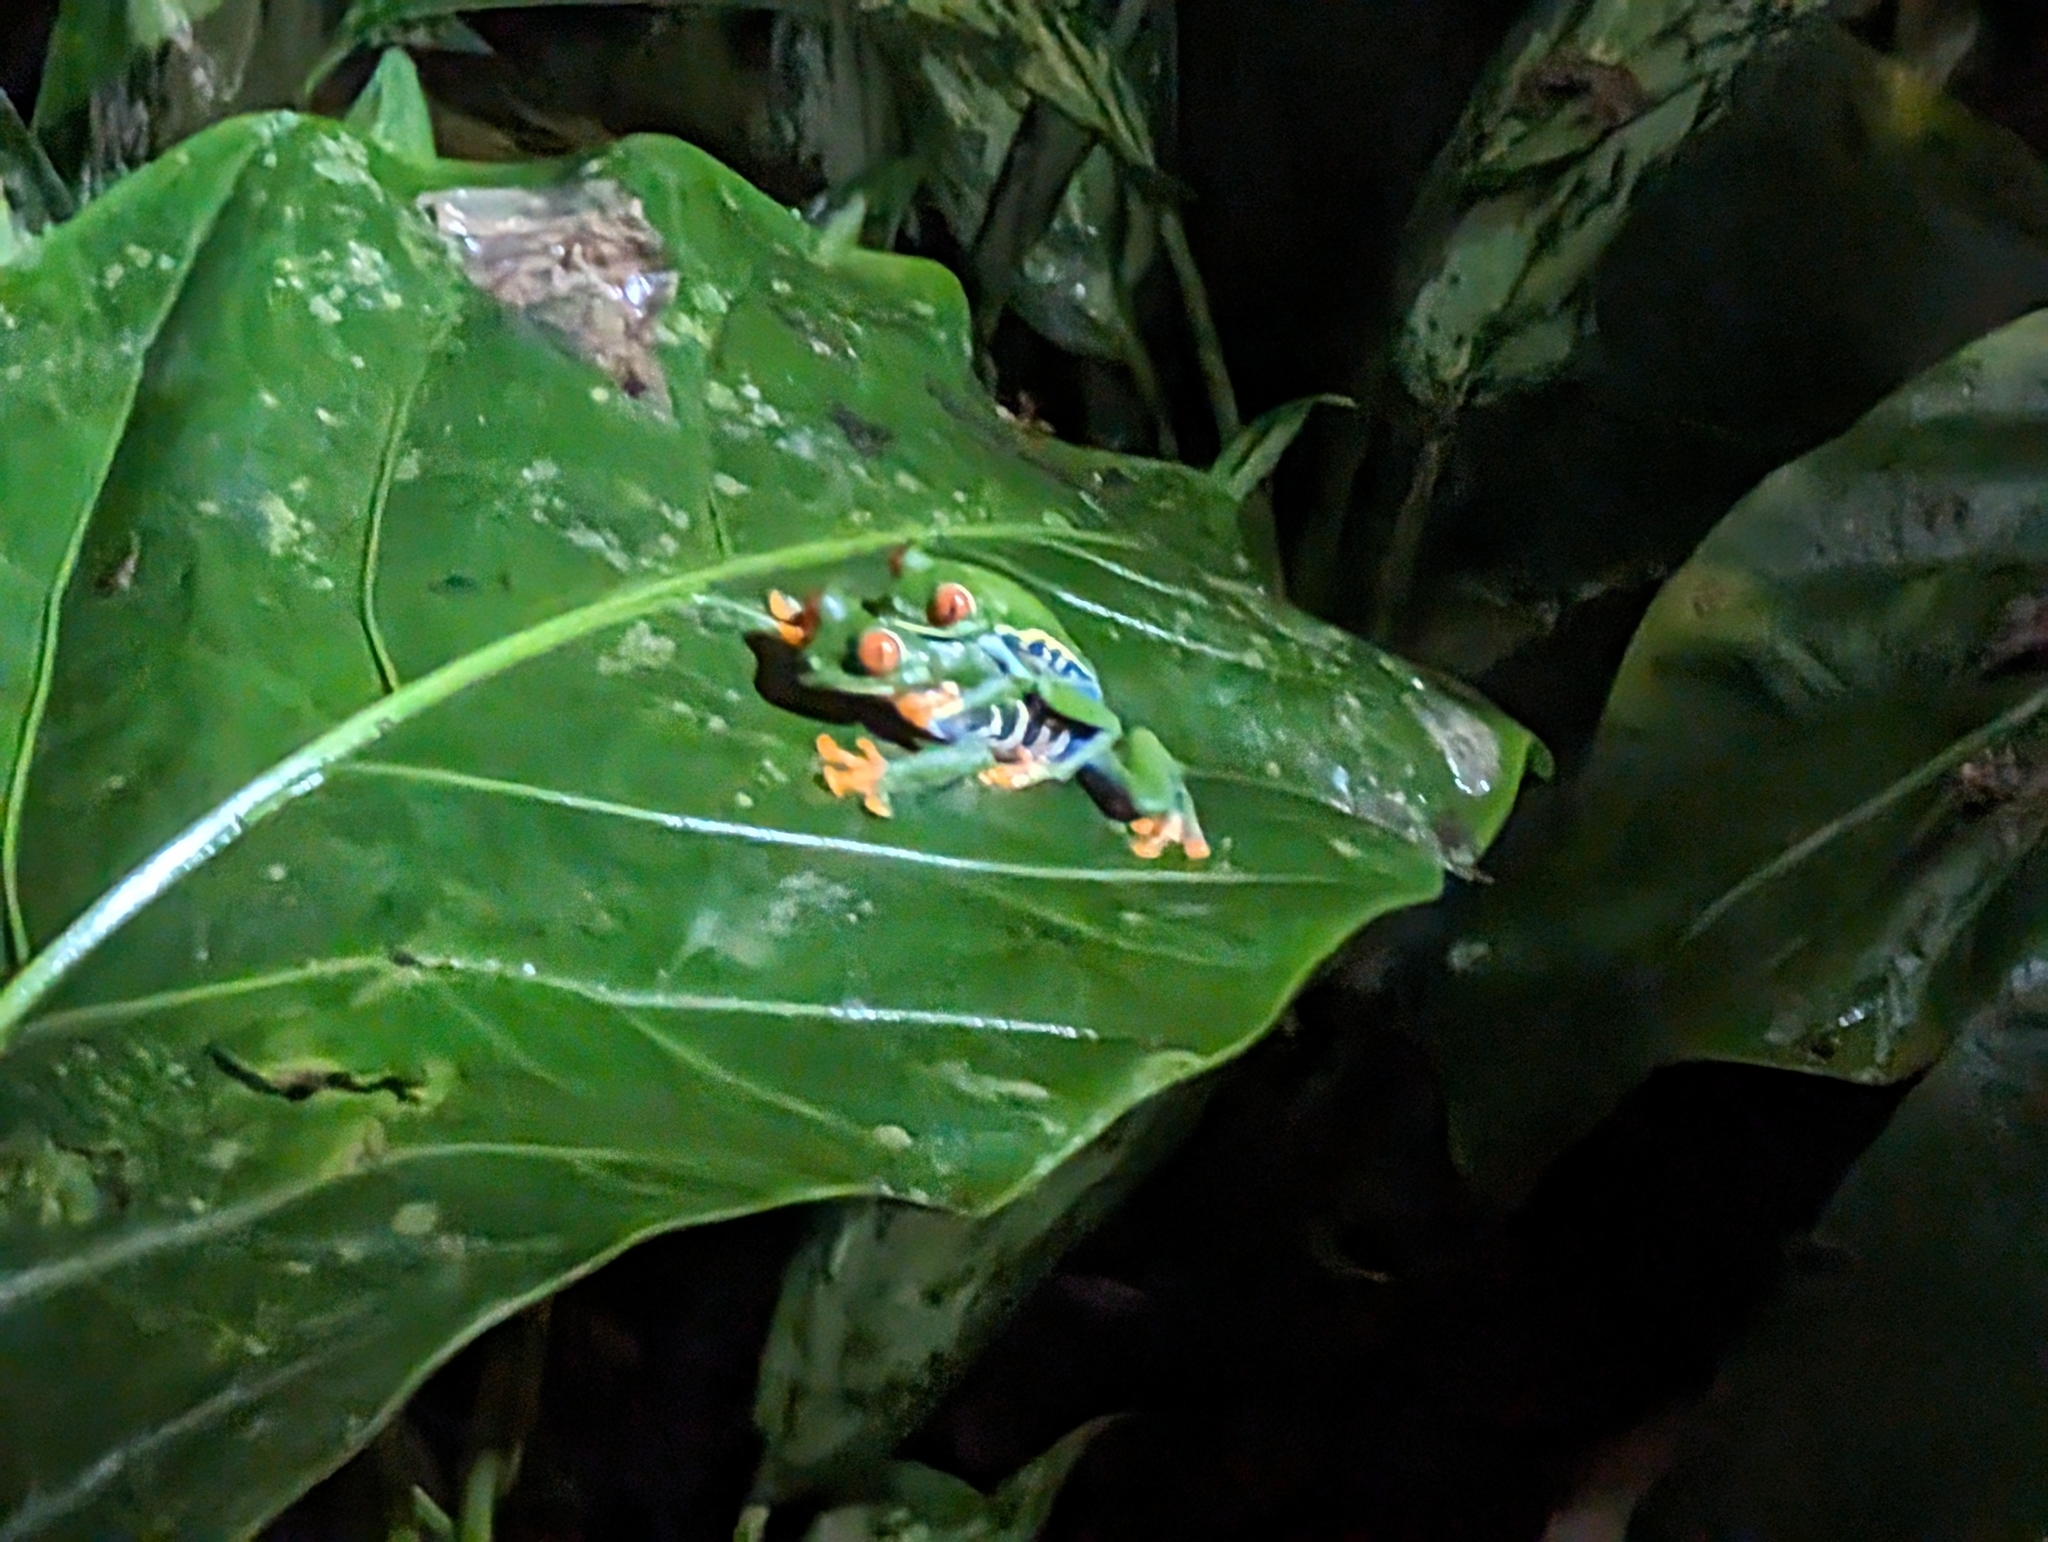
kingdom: Animalia
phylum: Chordata
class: Amphibia
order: Anura
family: Phyllomedusidae
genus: Agalychnis
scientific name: Agalychnis callidryas
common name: Red-eyed treefrog
